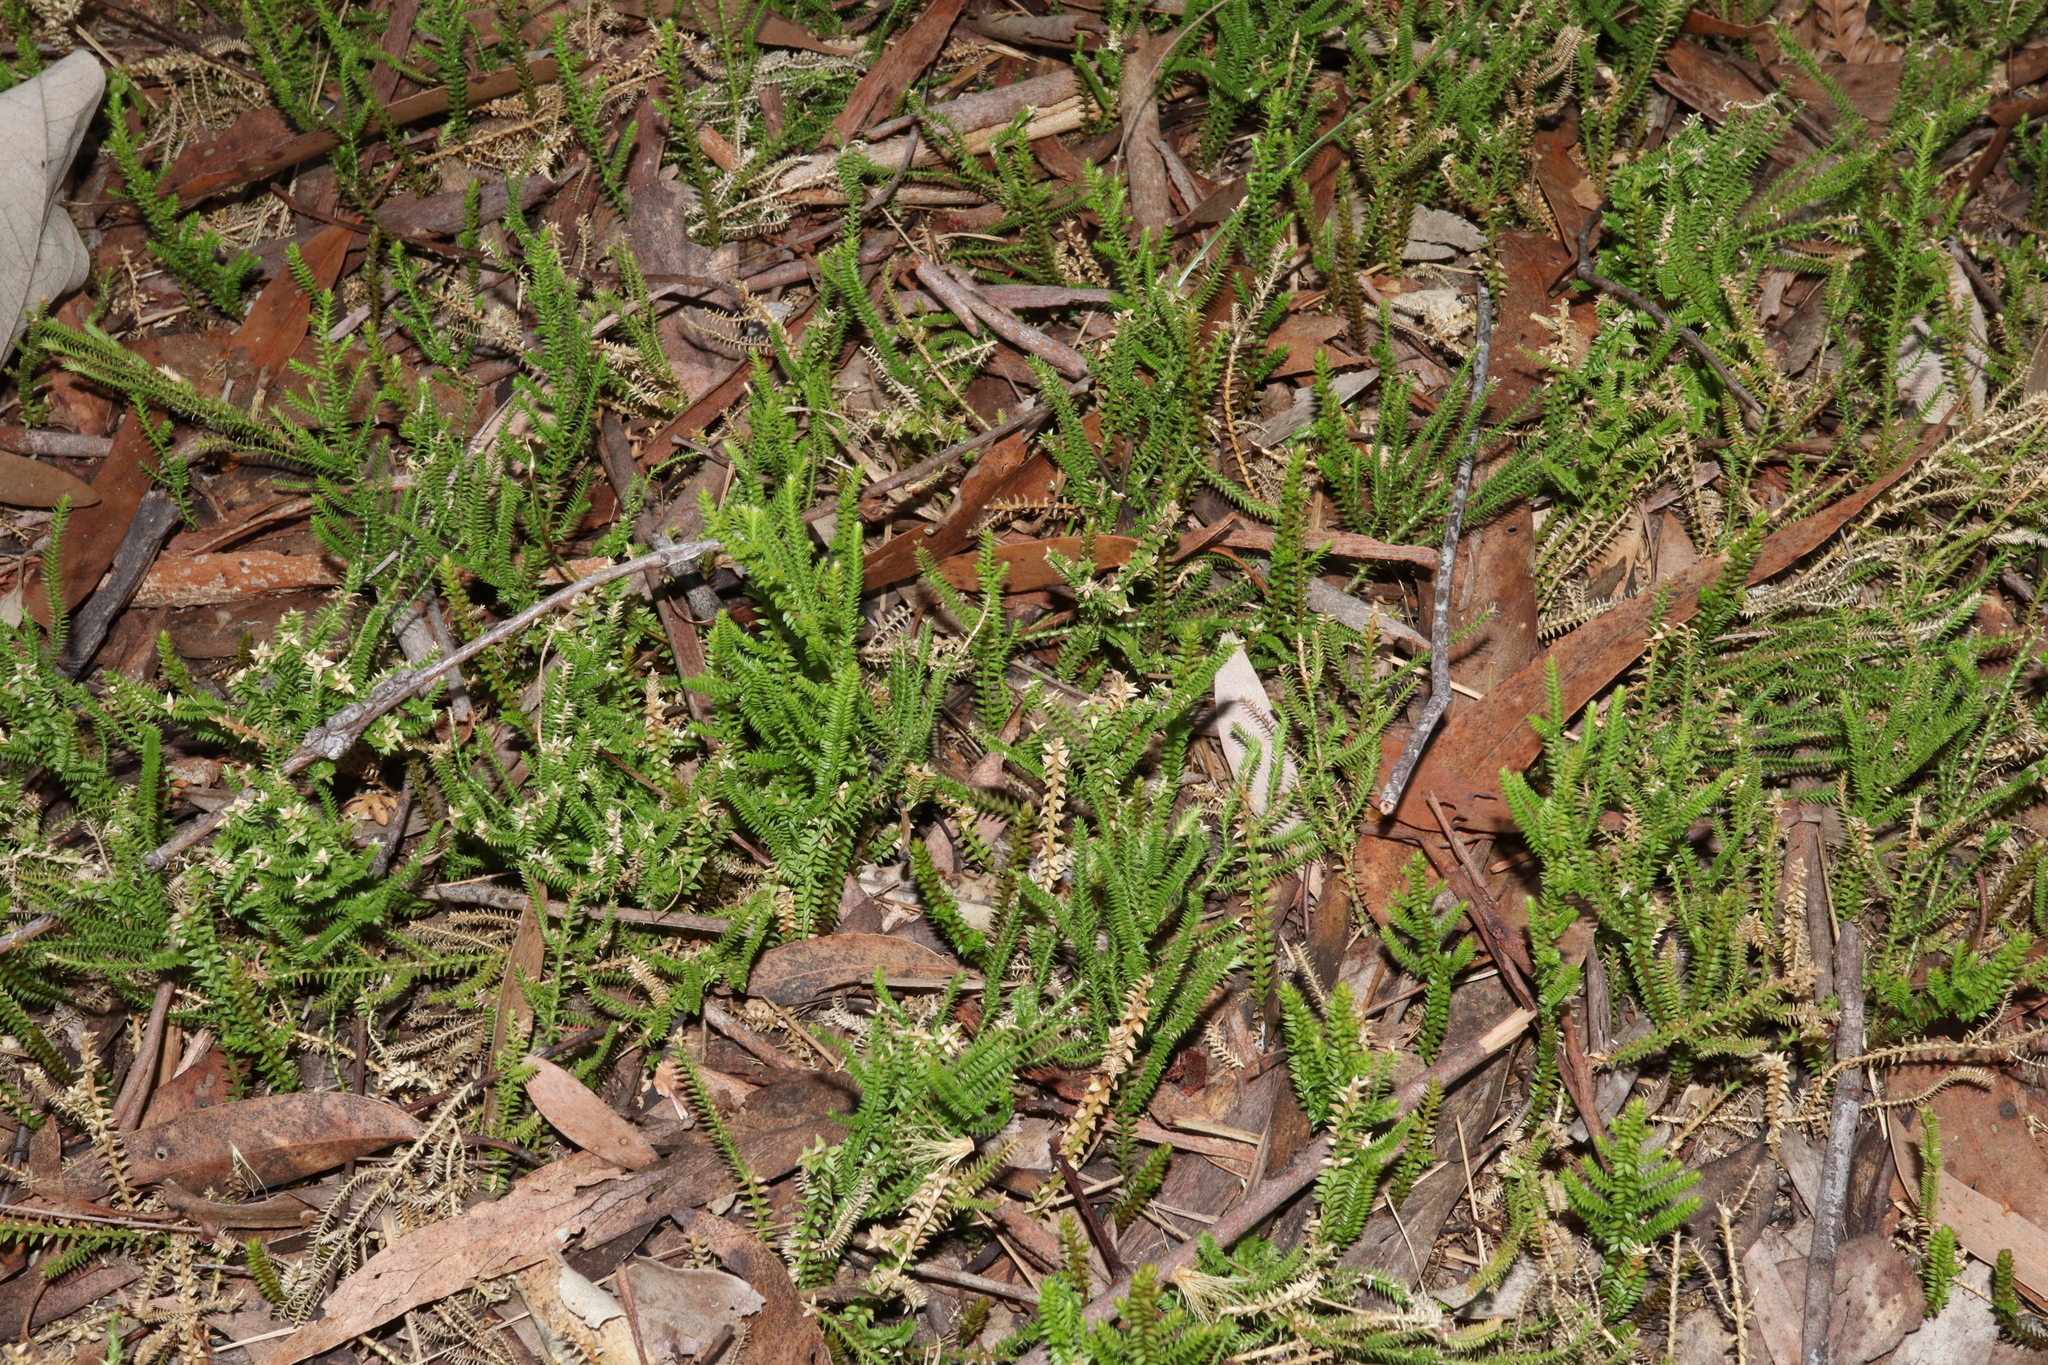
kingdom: Plantae
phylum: Tracheophyta
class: Lycopodiopsida
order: Selaginellales
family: Selaginellaceae
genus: Selaginella
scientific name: Selaginella uliginosa
